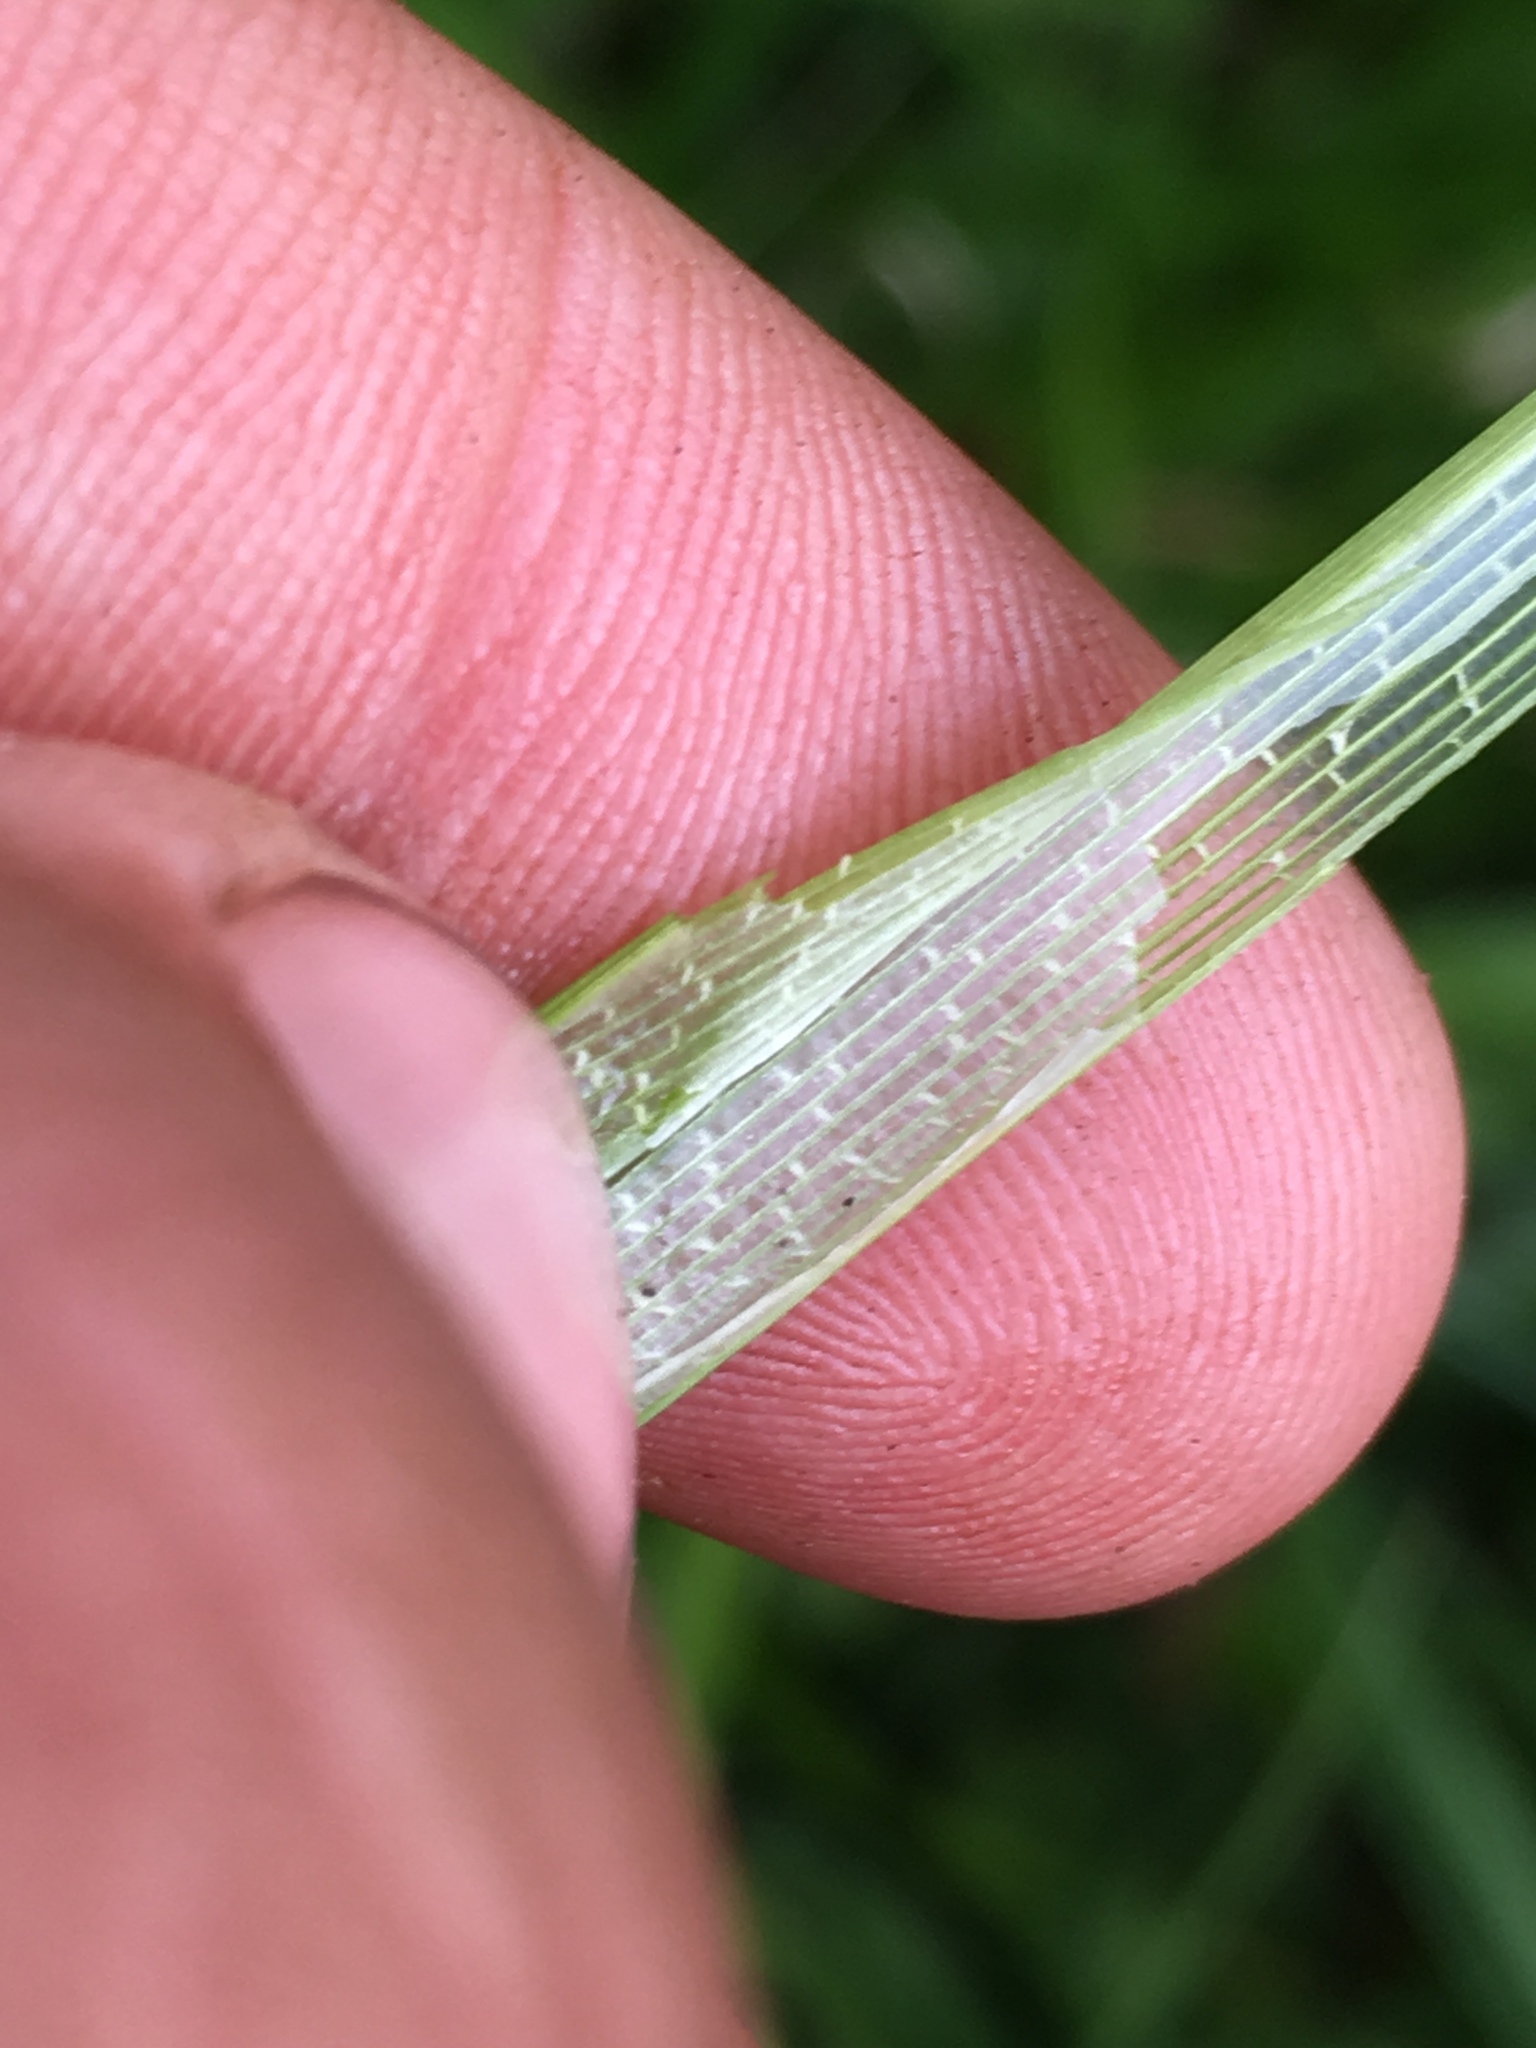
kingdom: Plantae
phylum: Tracheophyta
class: Liliopsida
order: Poales
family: Cyperaceae
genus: Carex
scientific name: Carex utriculata
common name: Beaked sedge
